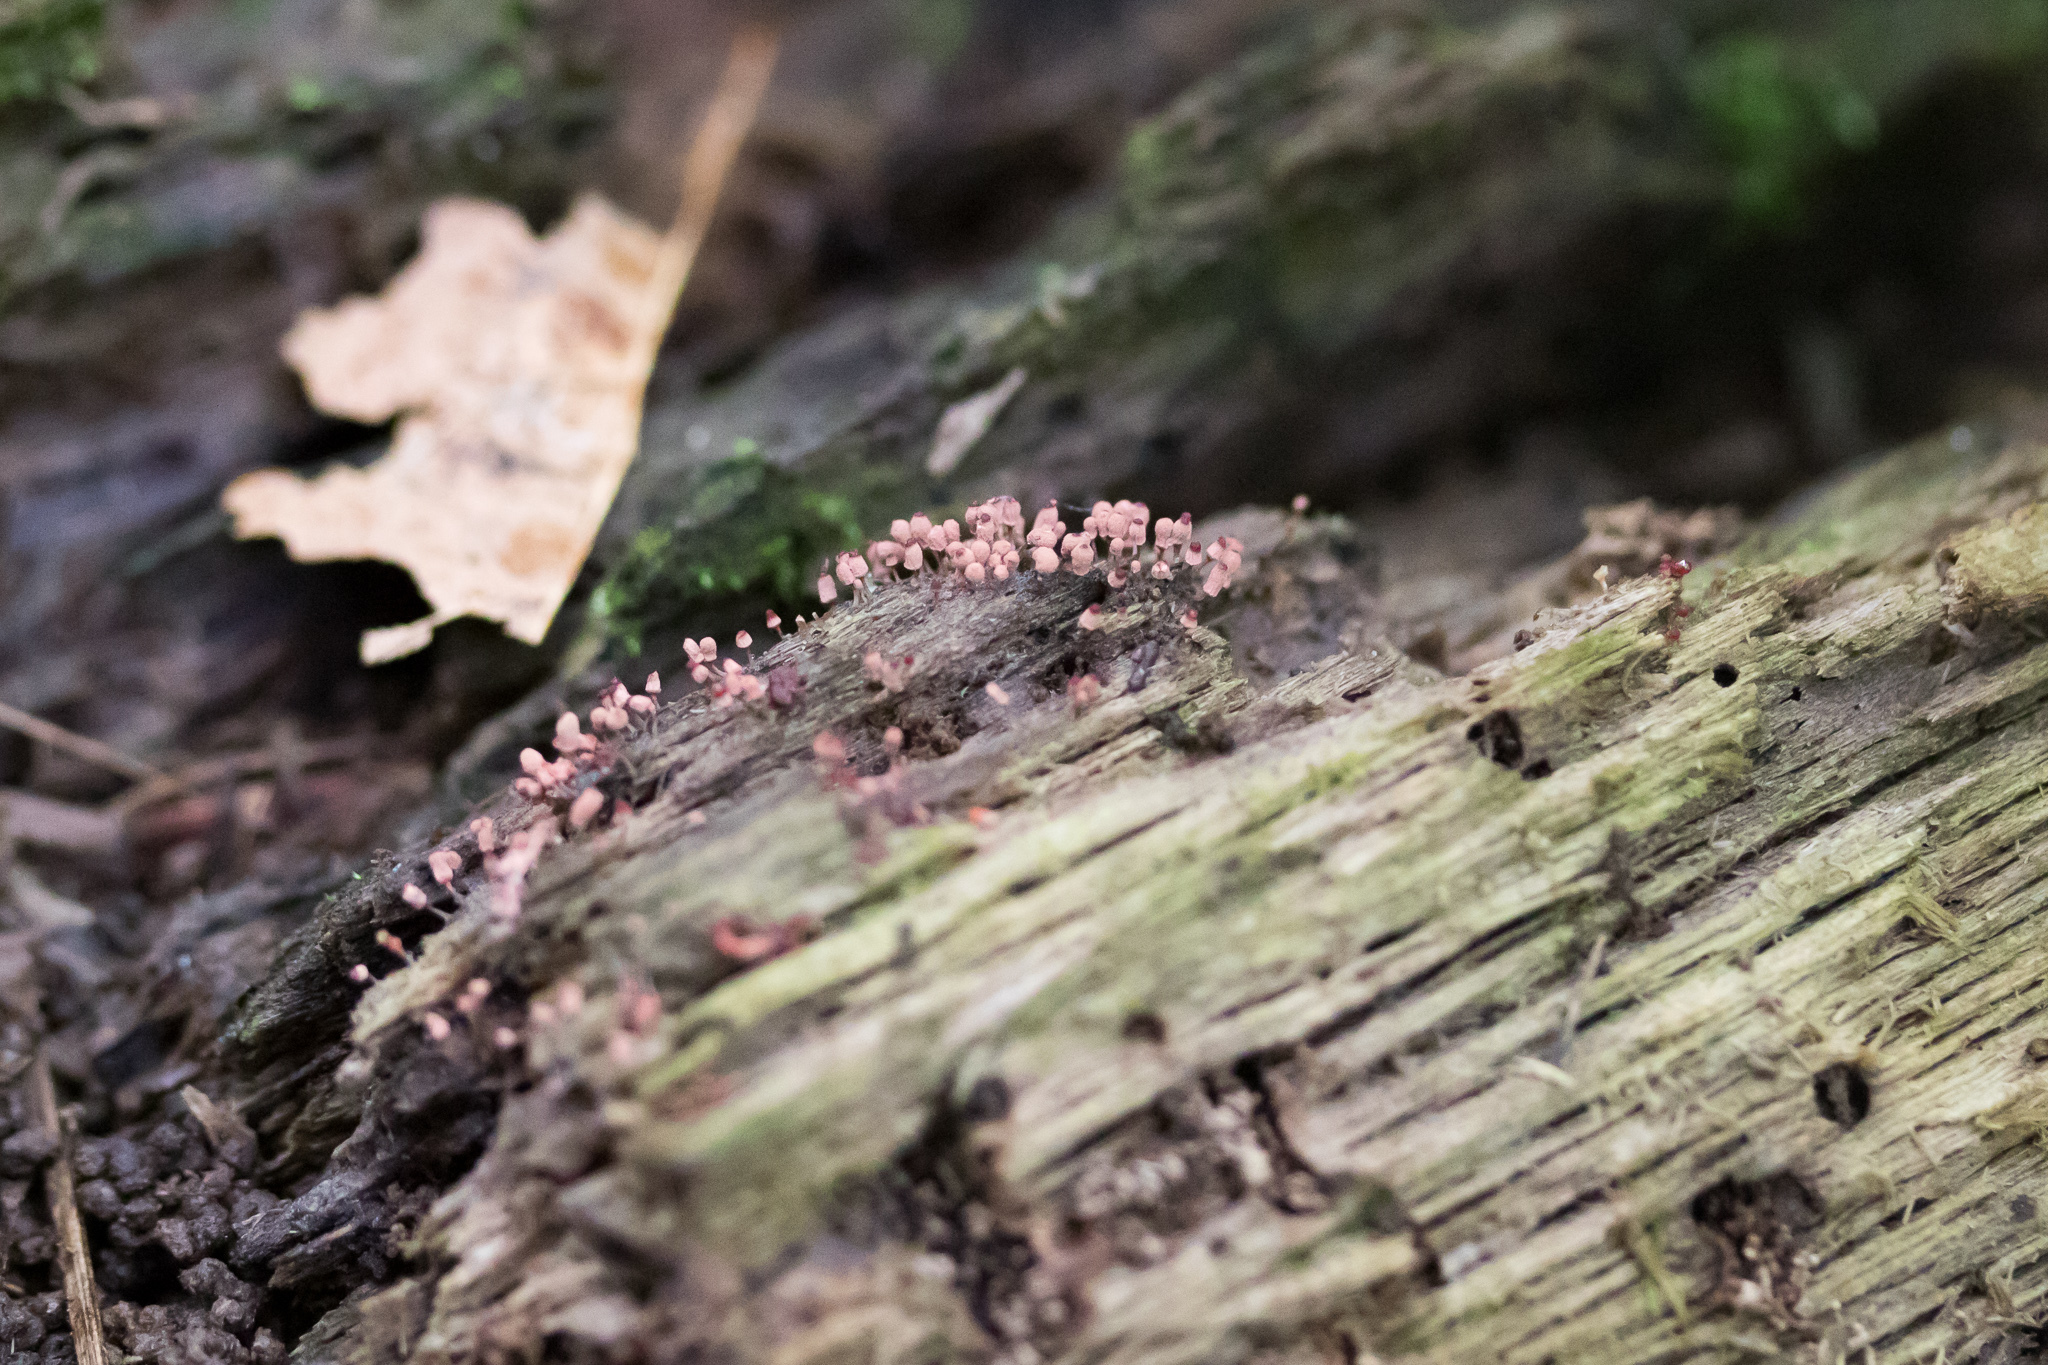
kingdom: Protozoa
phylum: Mycetozoa
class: Myxomycetes
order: Trichiales
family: Arcyriaceae
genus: Arcyria
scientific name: Arcyria denudata
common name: Carnival candy slime mold
